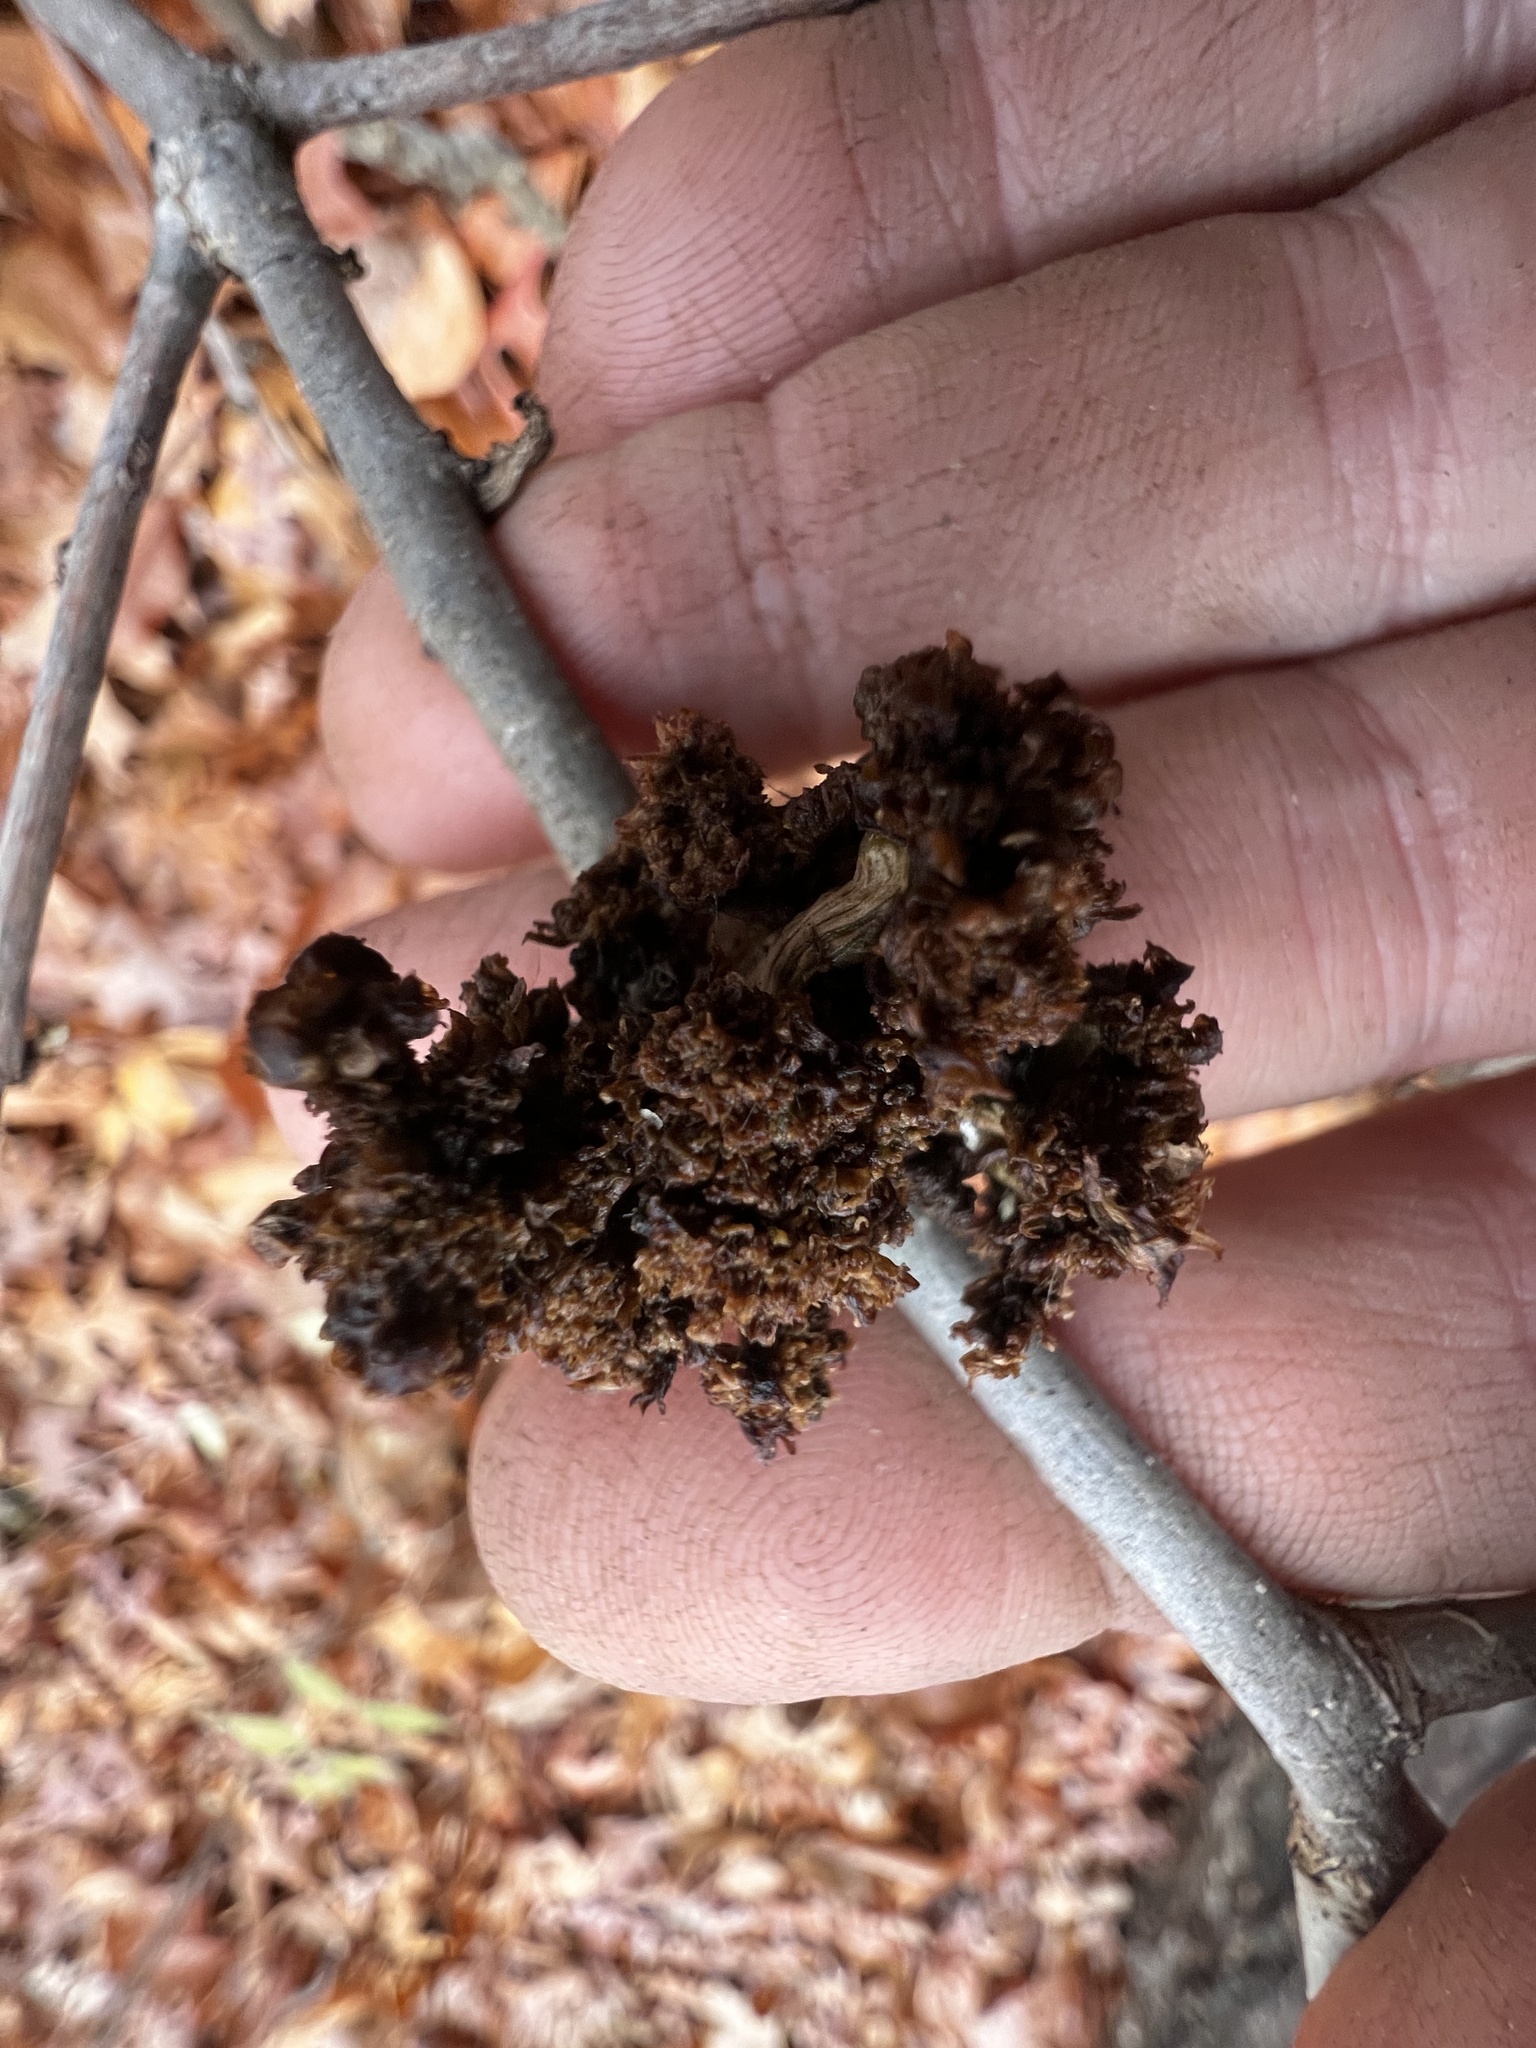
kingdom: Animalia
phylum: Arthropoda
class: Arachnida
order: Trombidiformes
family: Eriophyidae
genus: Aceria
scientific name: Aceria fraxiniflora
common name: Ash flower gall mite
